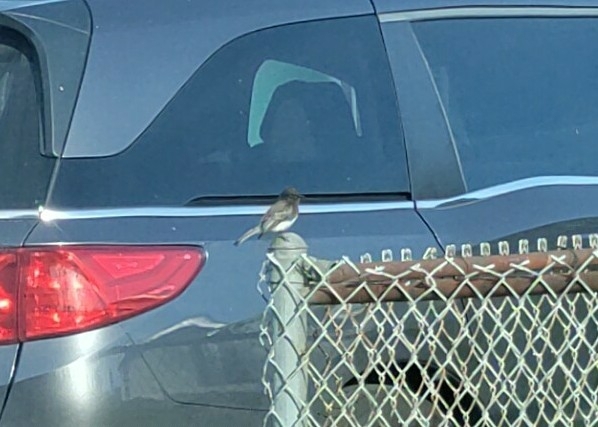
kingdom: Animalia
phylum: Chordata
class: Aves
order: Passeriformes
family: Tyrannidae
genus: Sayornis
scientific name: Sayornis nigricans
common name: Black phoebe
